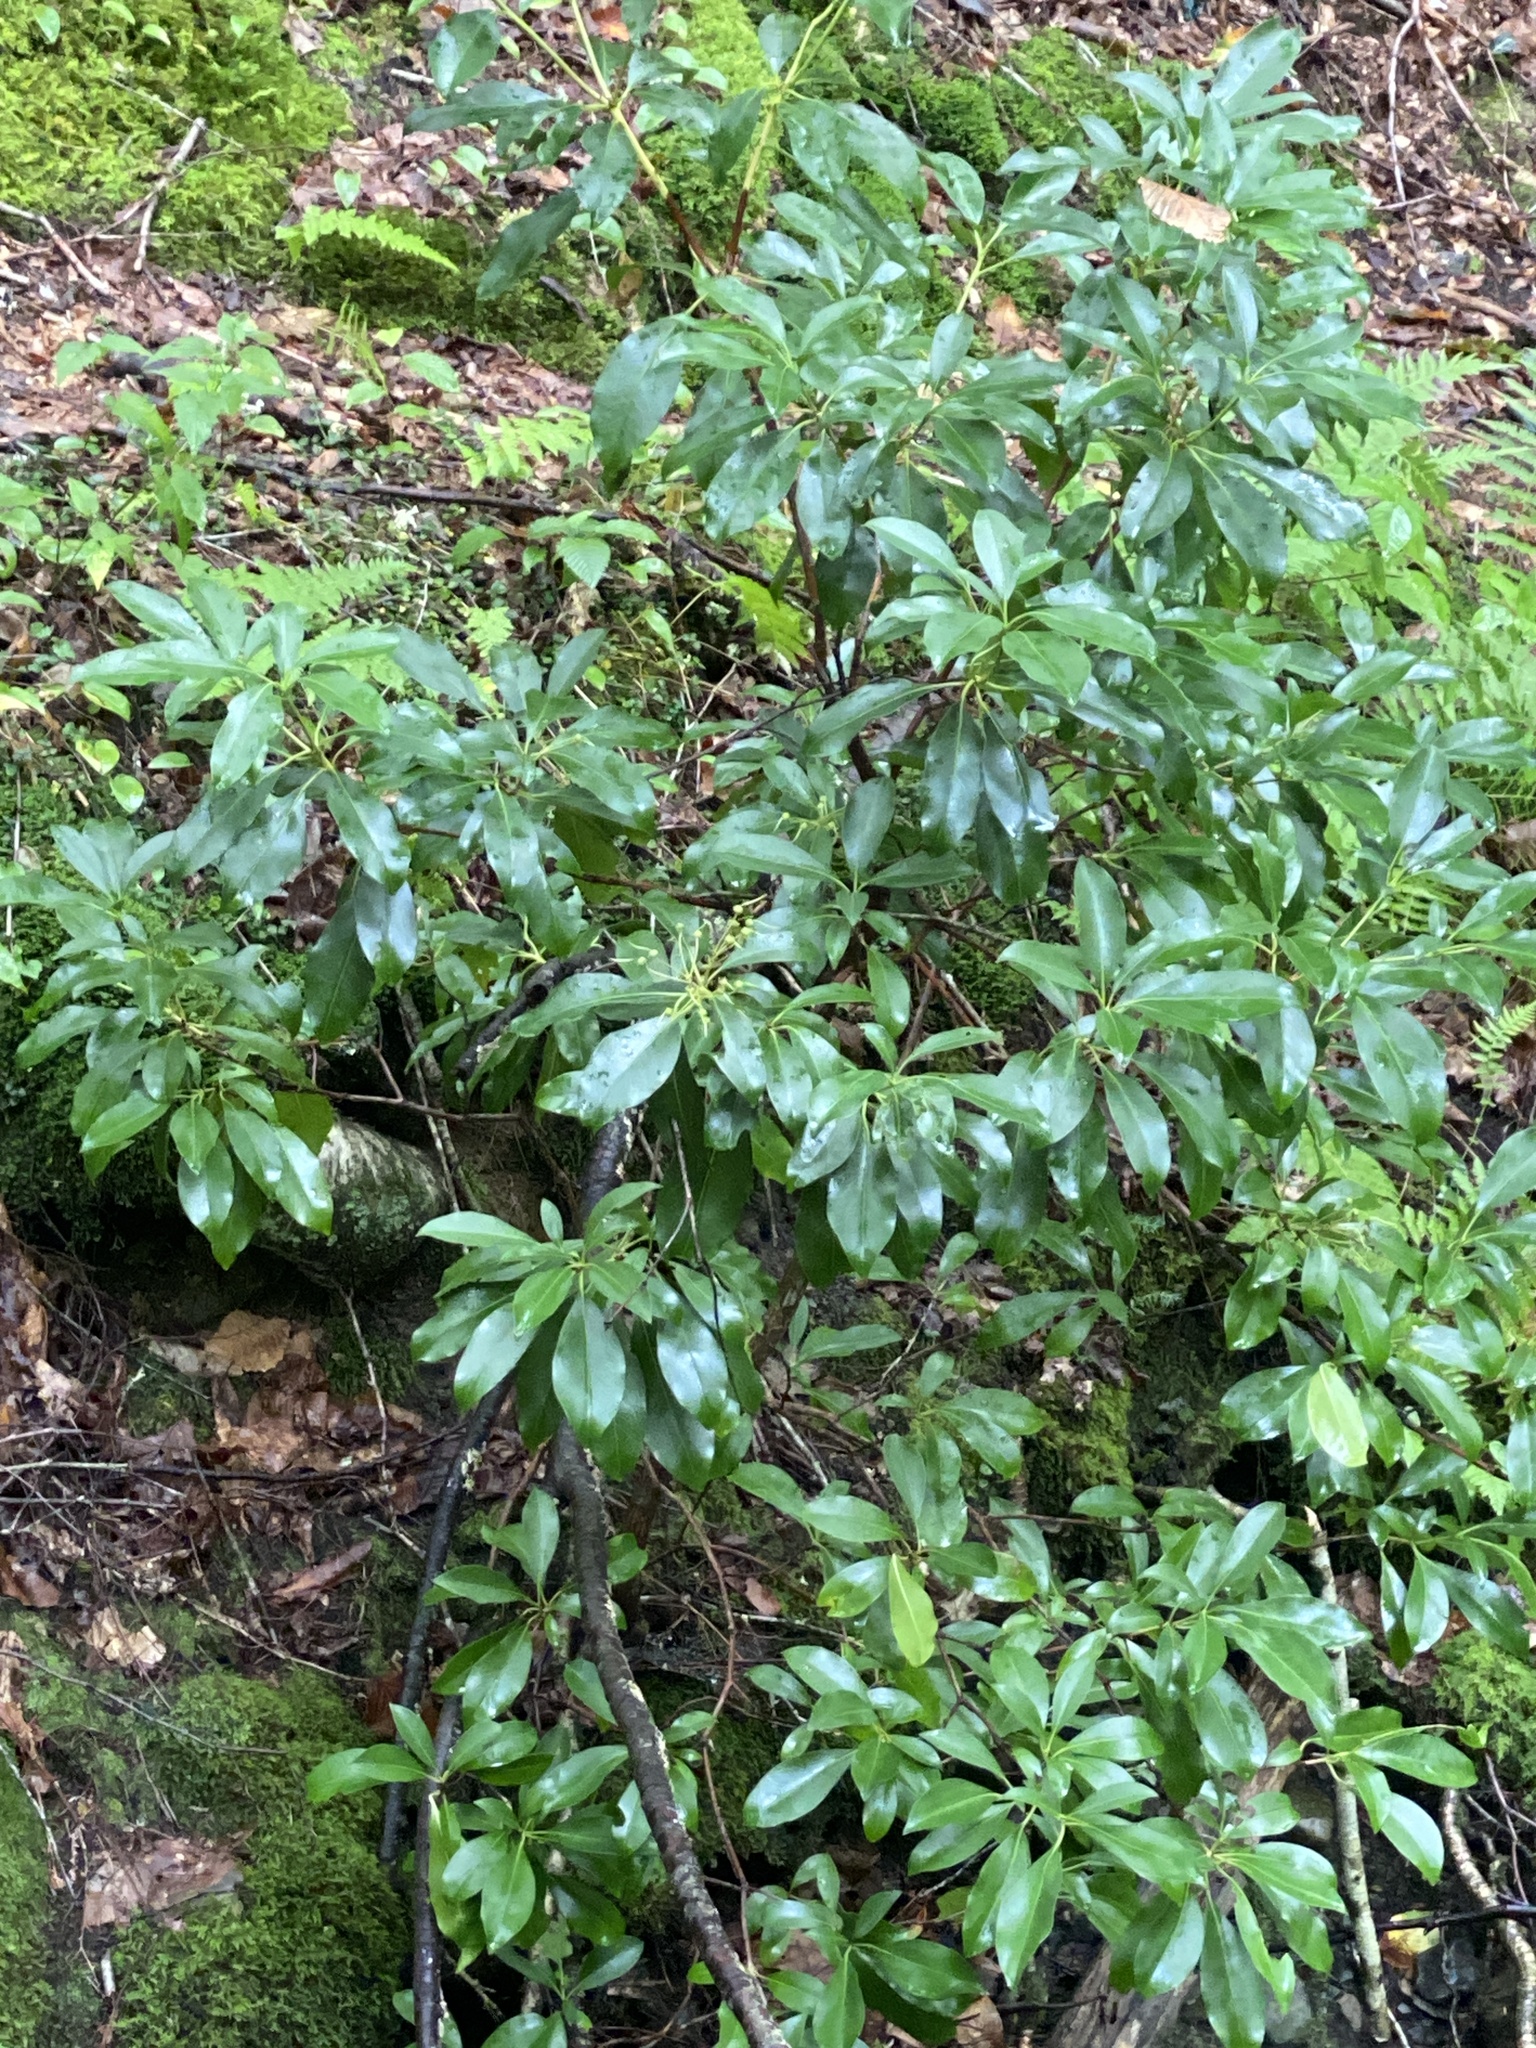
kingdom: Plantae
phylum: Tracheophyta
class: Magnoliopsida
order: Ericales
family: Ericaceae
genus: Kalmia
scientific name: Kalmia latifolia
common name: Mountain-laurel
